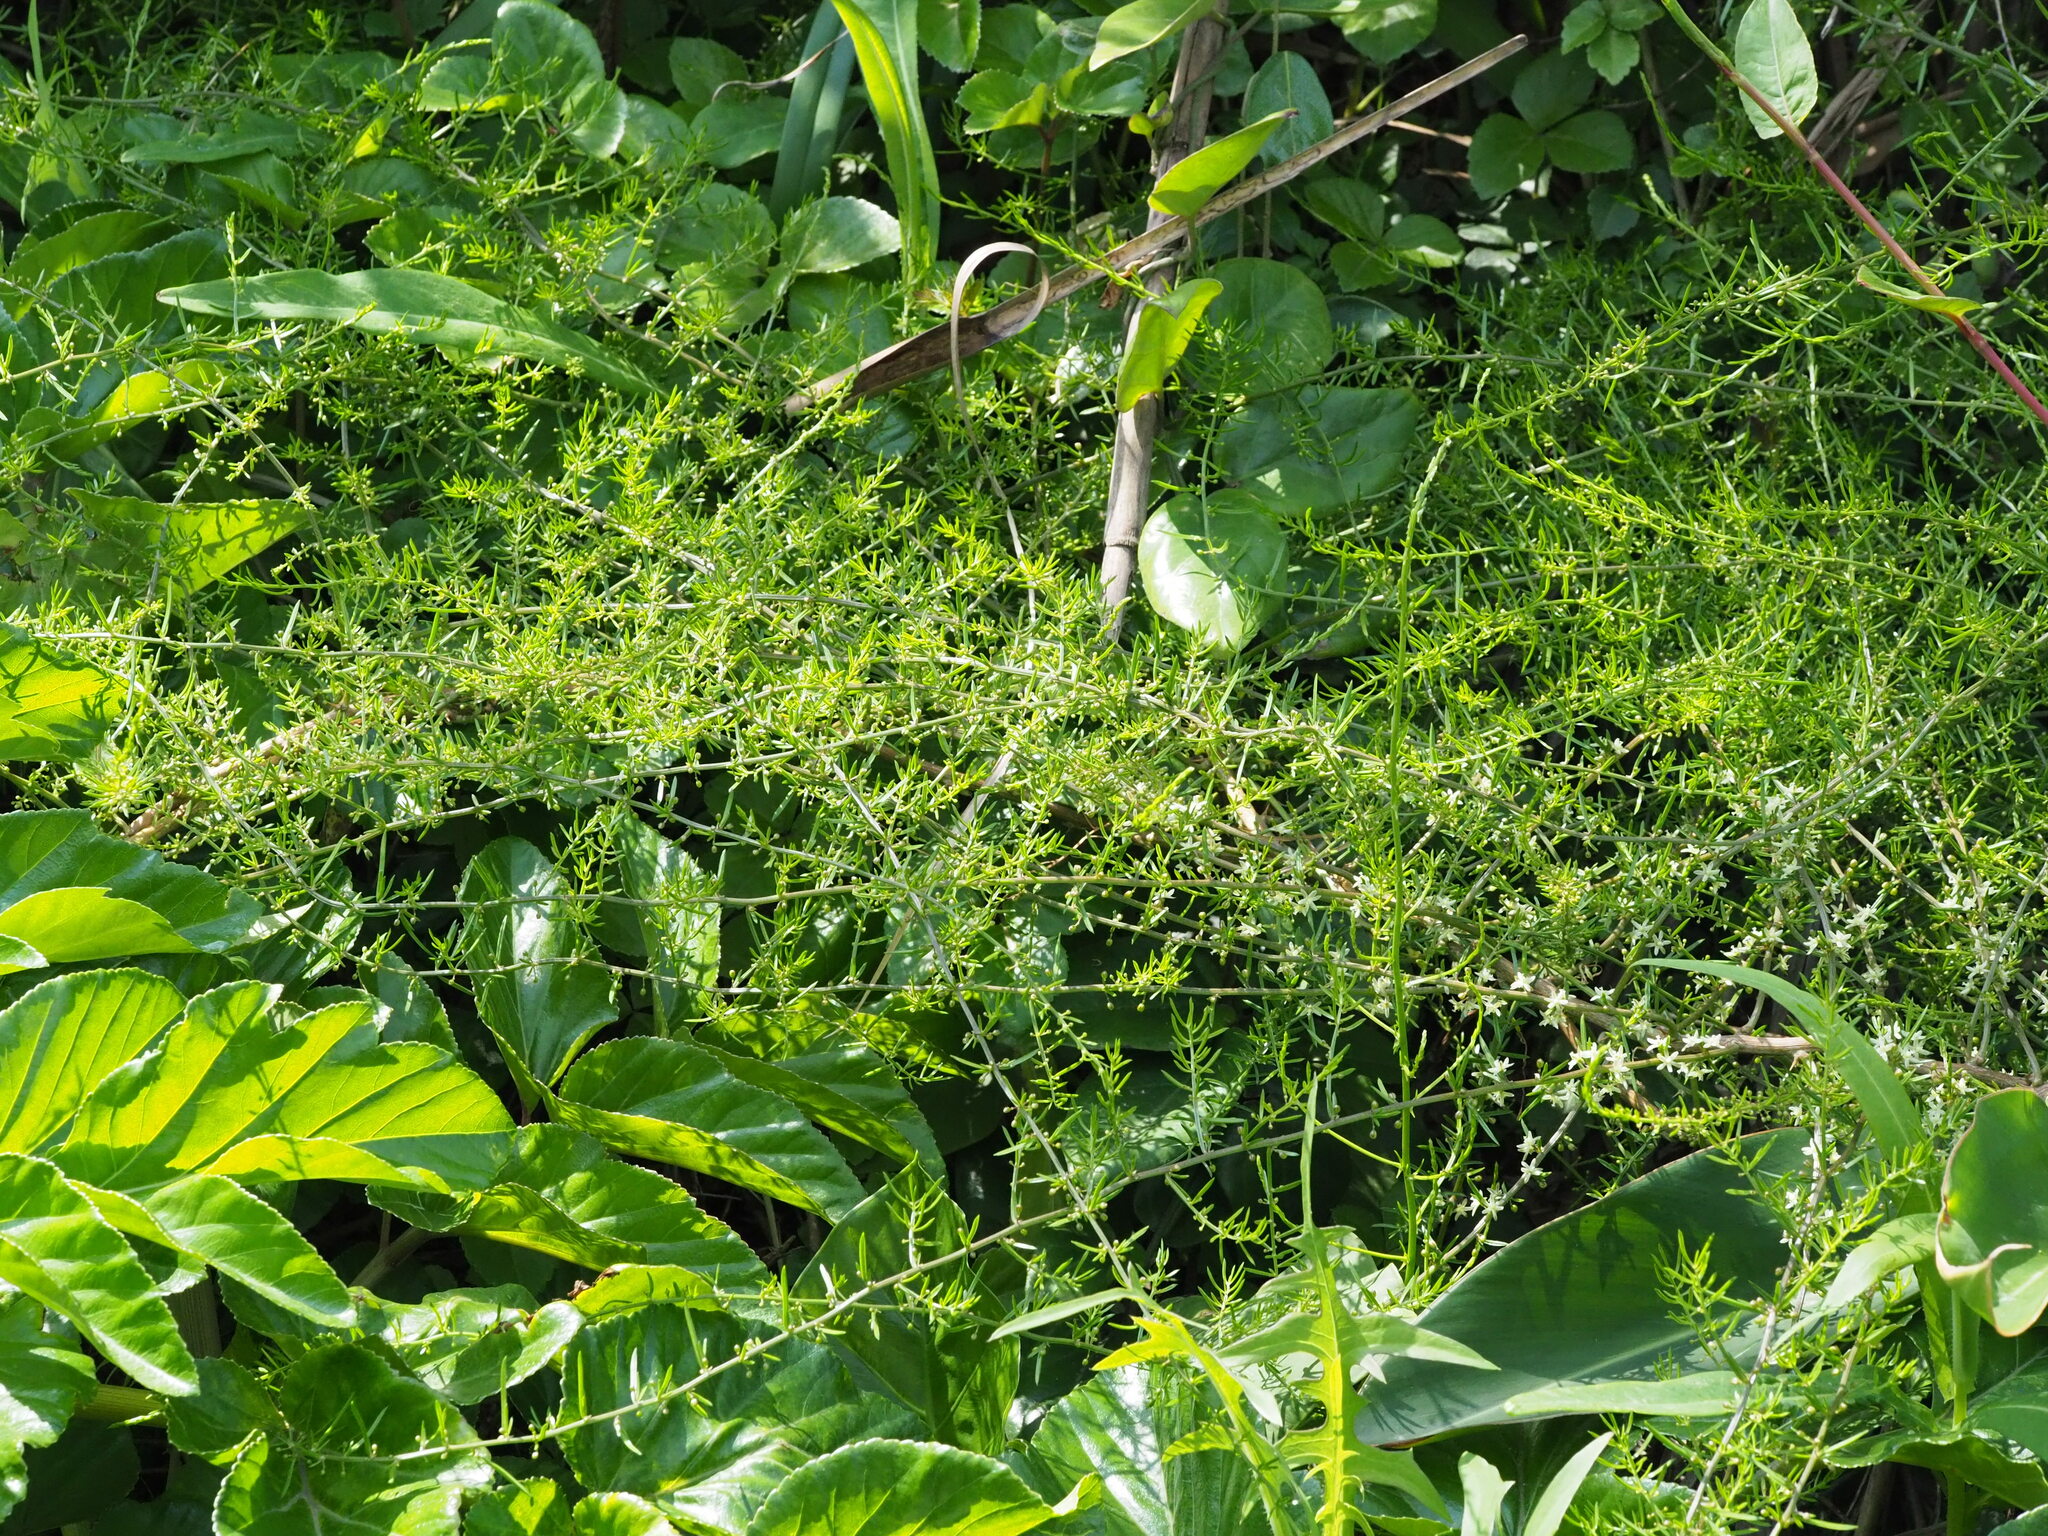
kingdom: Plantae
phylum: Tracheophyta
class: Liliopsida
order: Asparagales
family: Asparagaceae
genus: Asparagus
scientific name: Asparagus cochinchinensis
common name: Chinese asparagus
